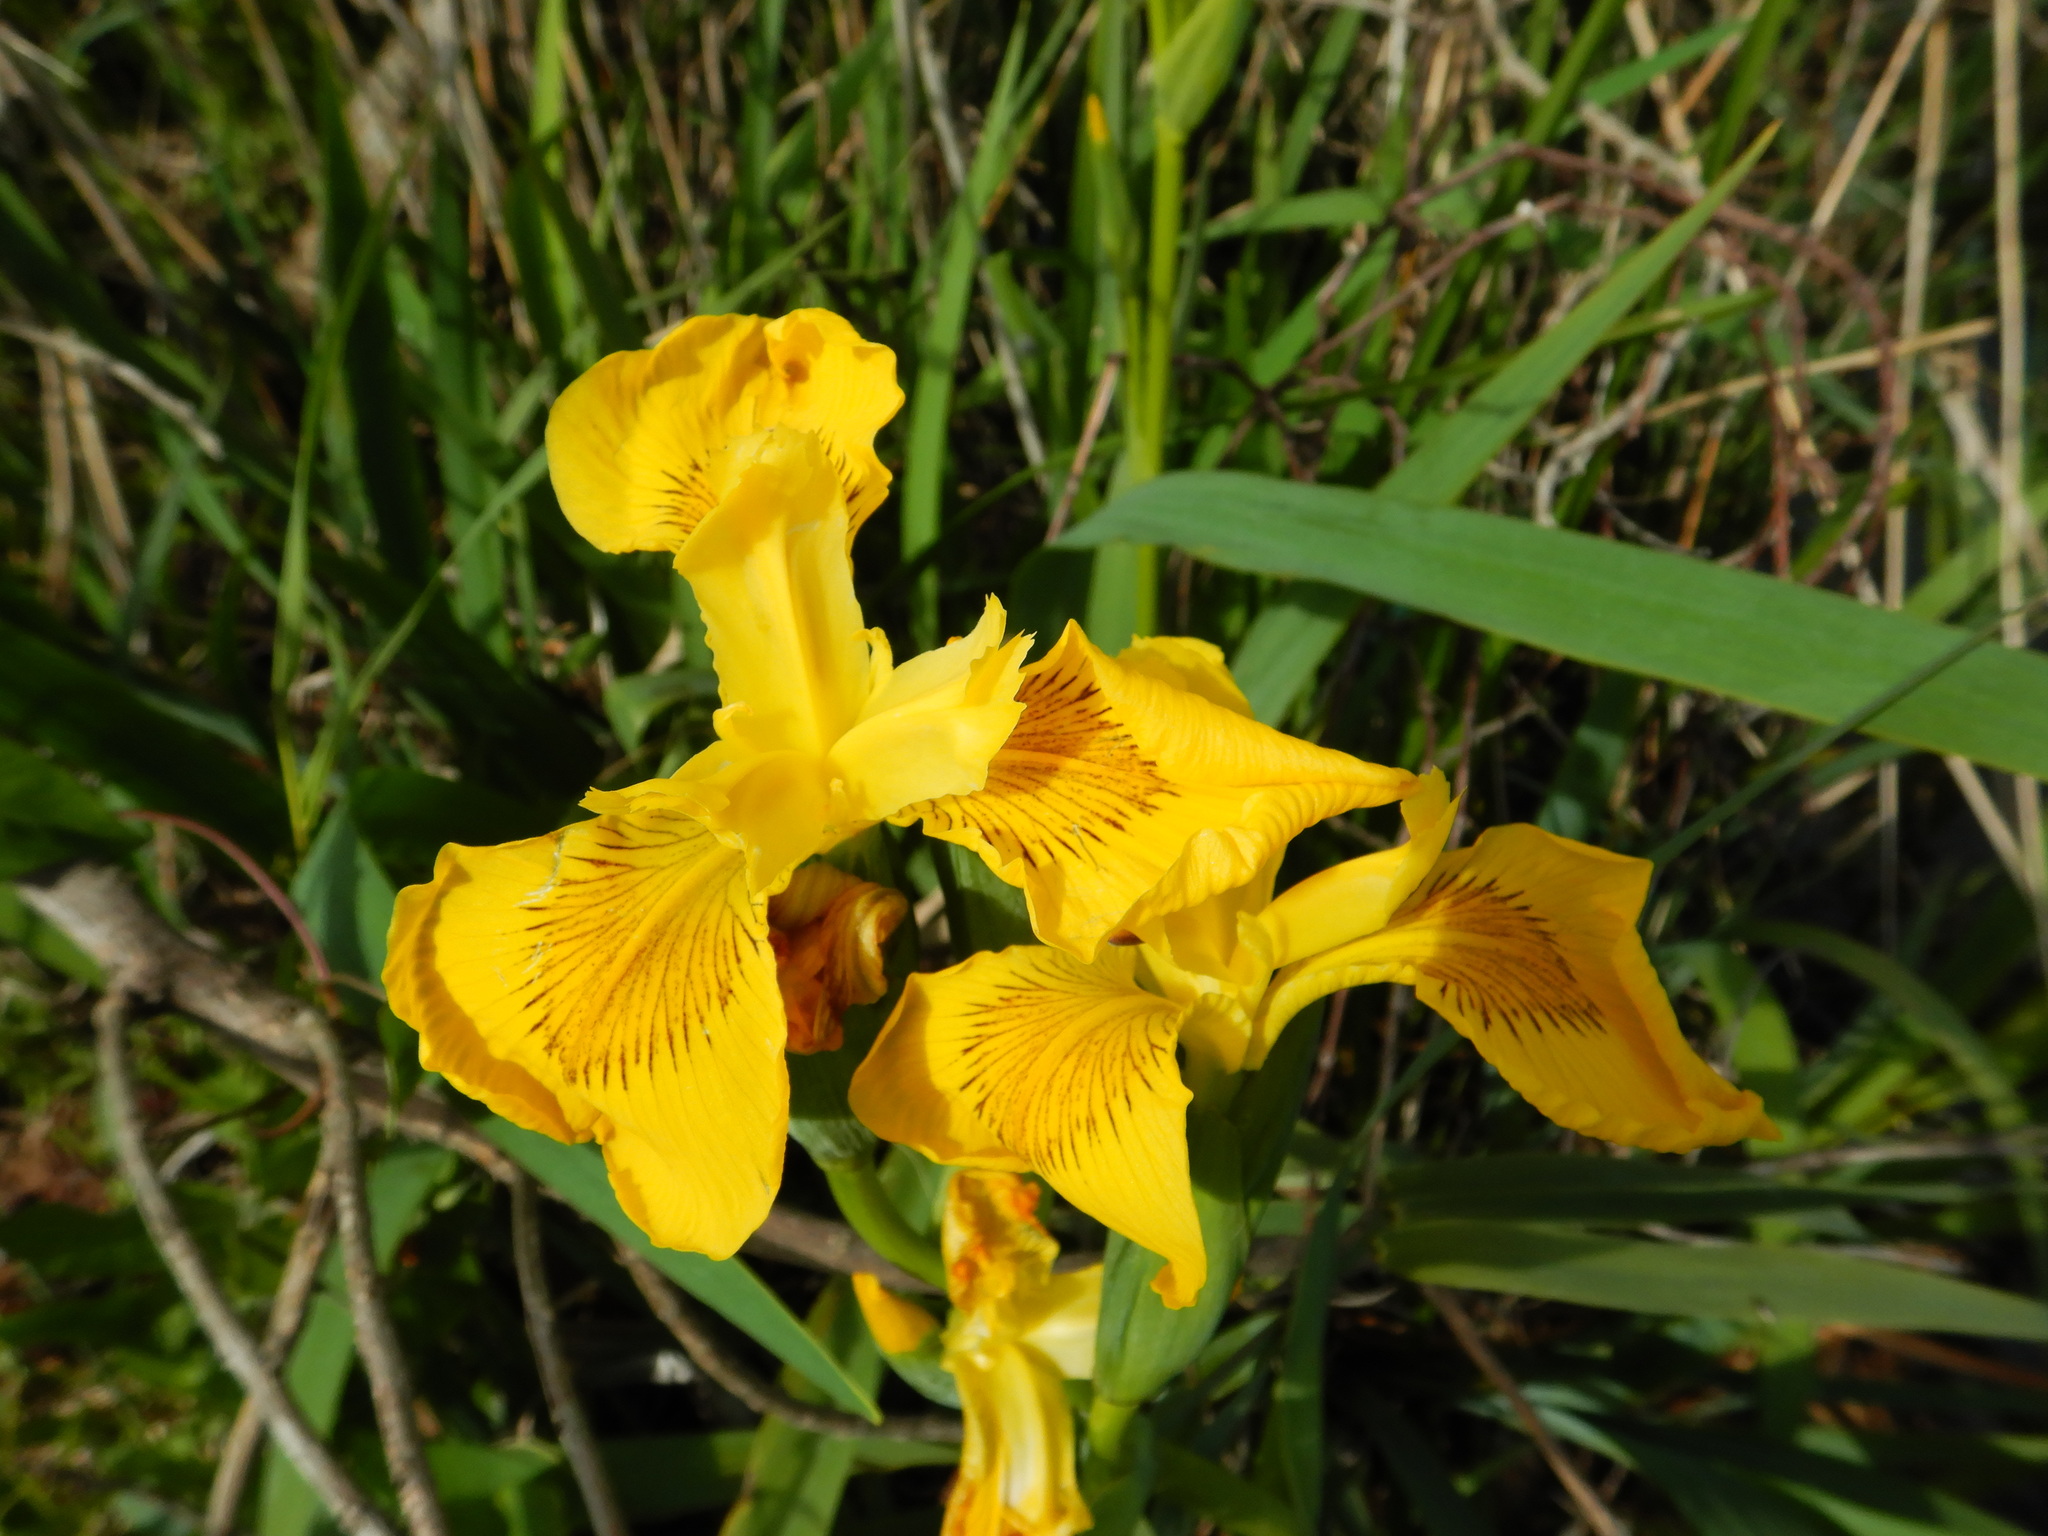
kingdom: Plantae
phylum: Tracheophyta
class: Liliopsida
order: Asparagales
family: Iridaceae
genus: Iris
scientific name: Iris pseudacorus
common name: Yellow flag
